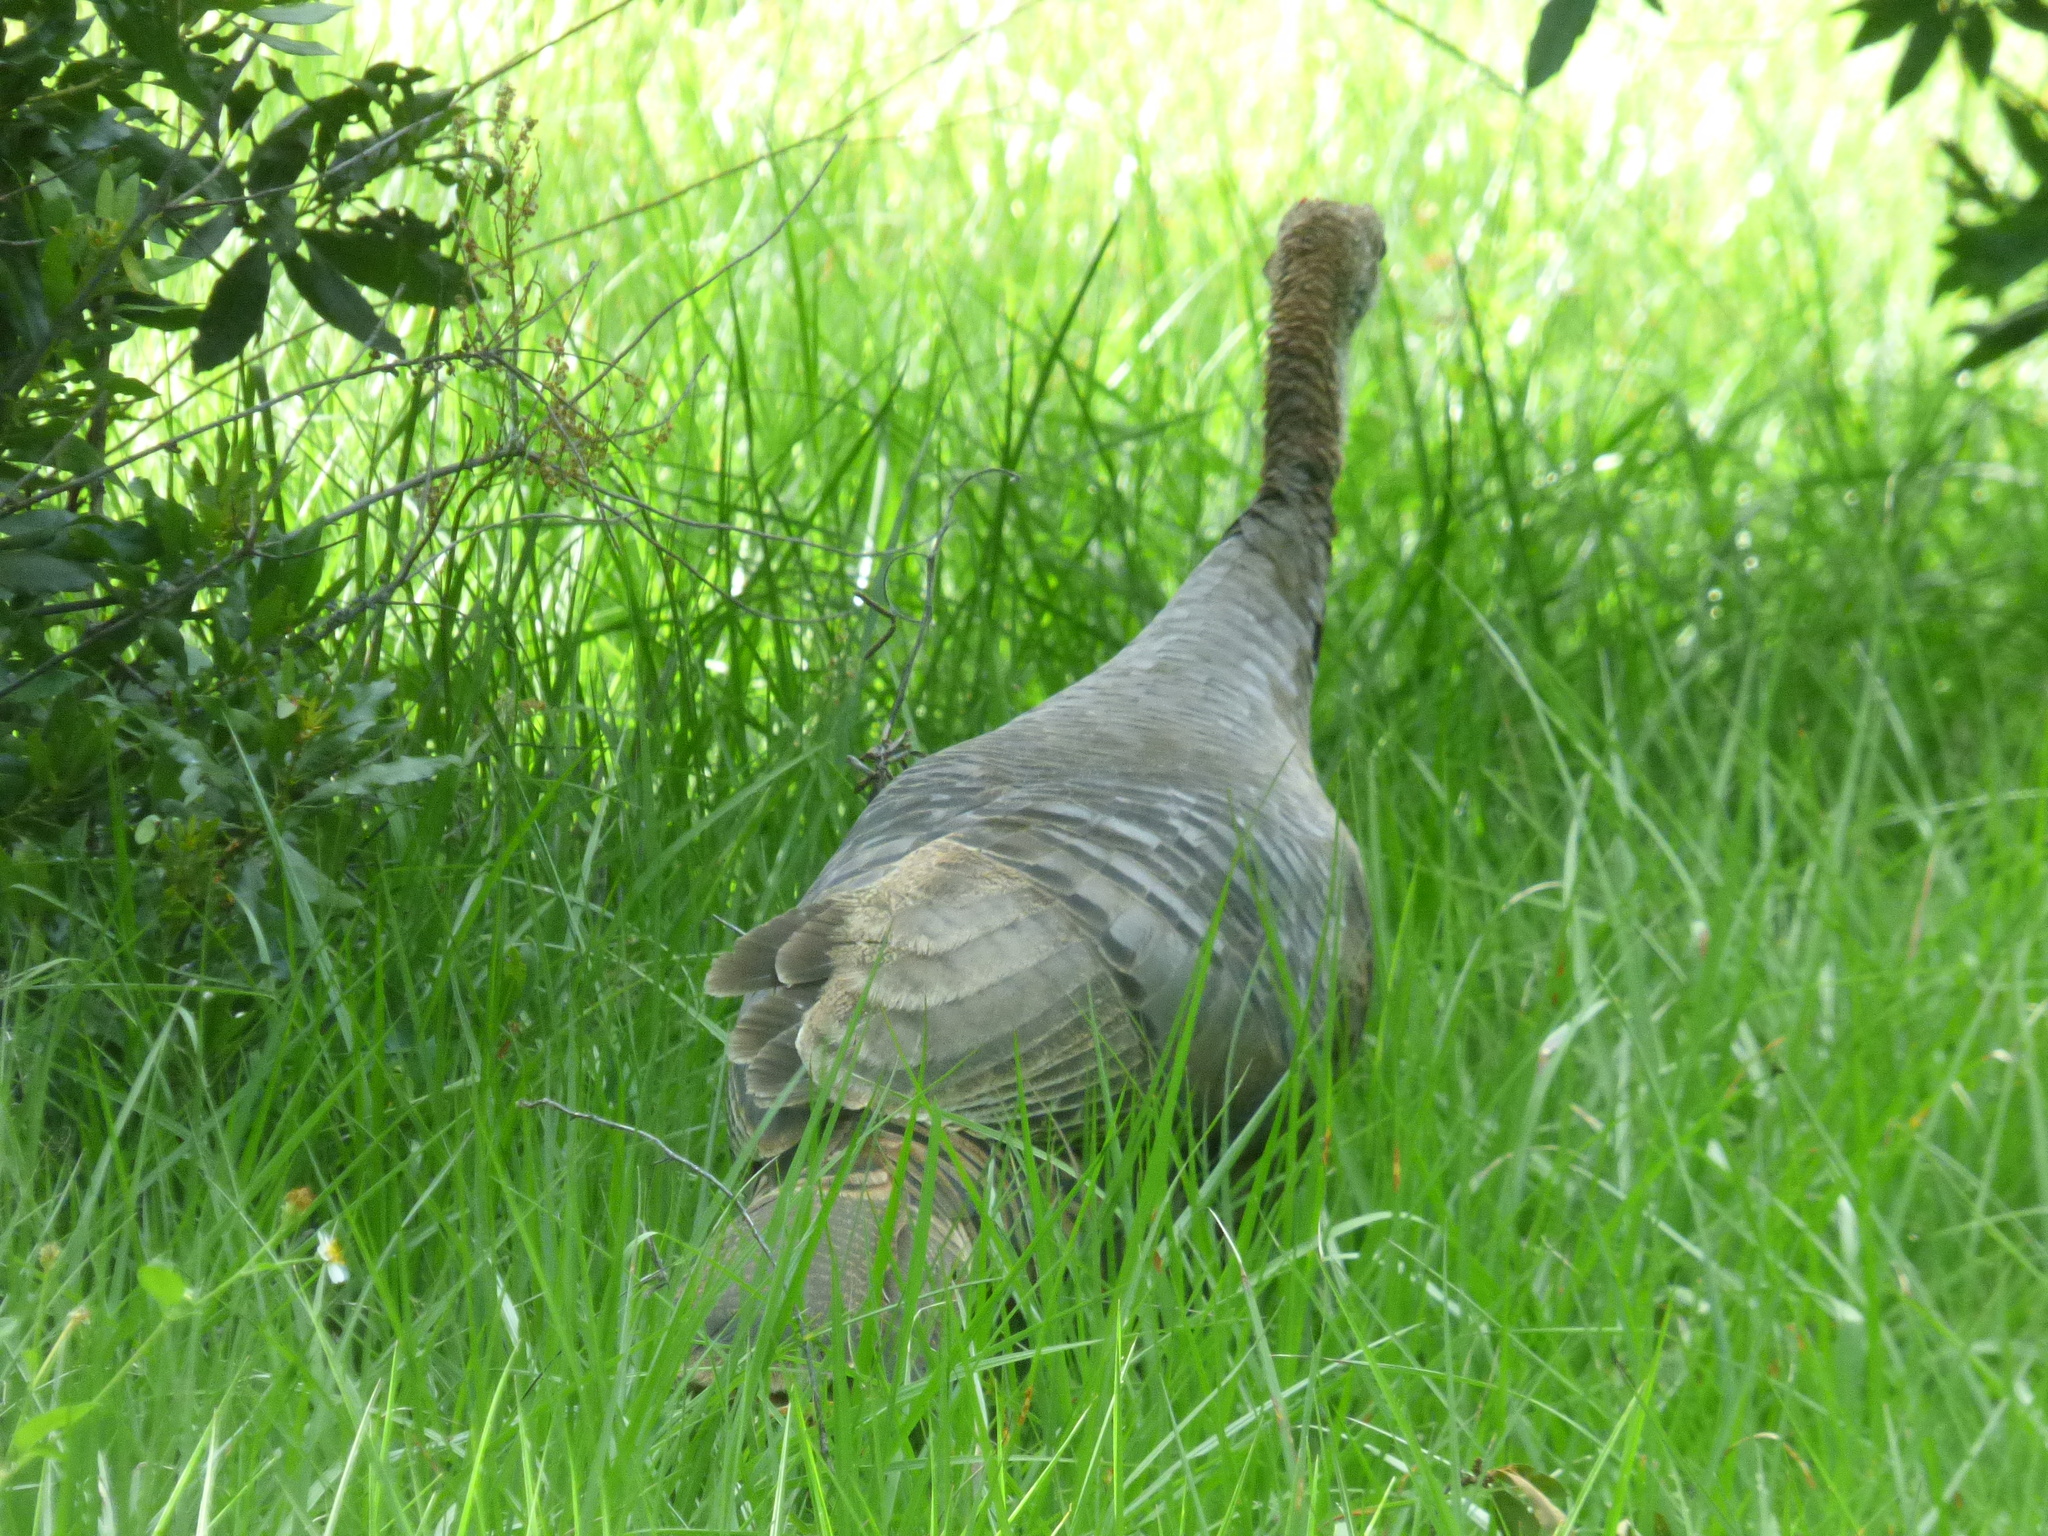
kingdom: Animalia
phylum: Chordata
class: Aves
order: Galliformes
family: Phasianidae
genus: Meleagris
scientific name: Meleagris gallopavo
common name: Wild turkey
